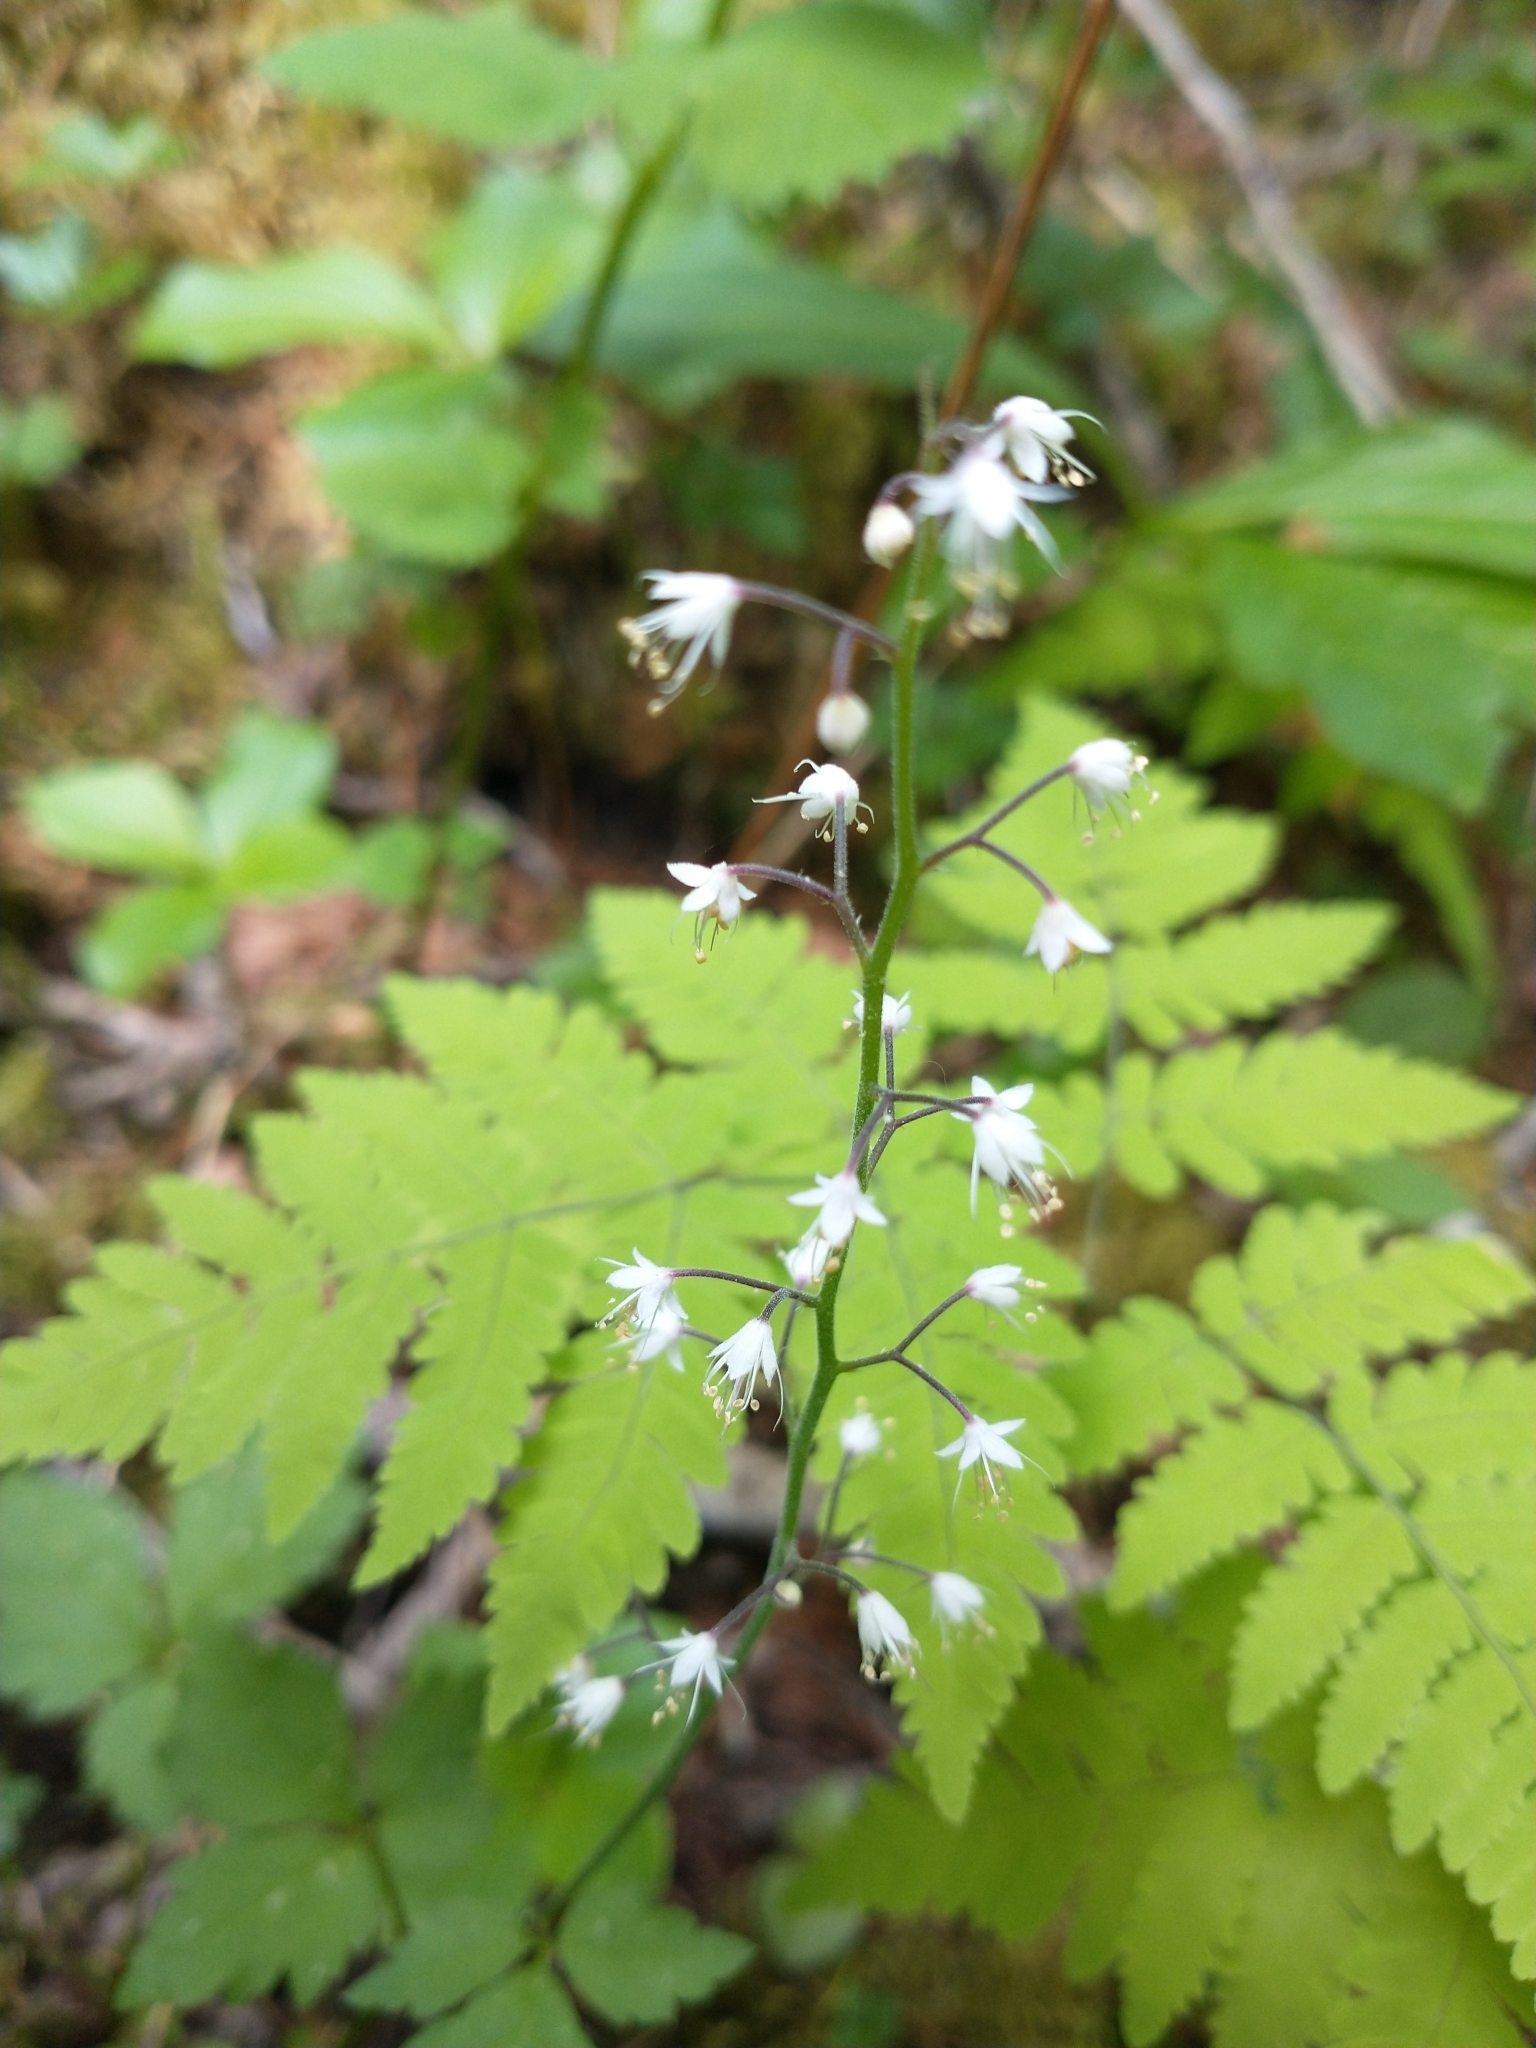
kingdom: Plantae
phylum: Tracheophyta
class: Magnoliopsida
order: Saxifragales
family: Saxifragaceae
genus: Tiarella
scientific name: Tiarella trifoliata
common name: Sugar-scoop
